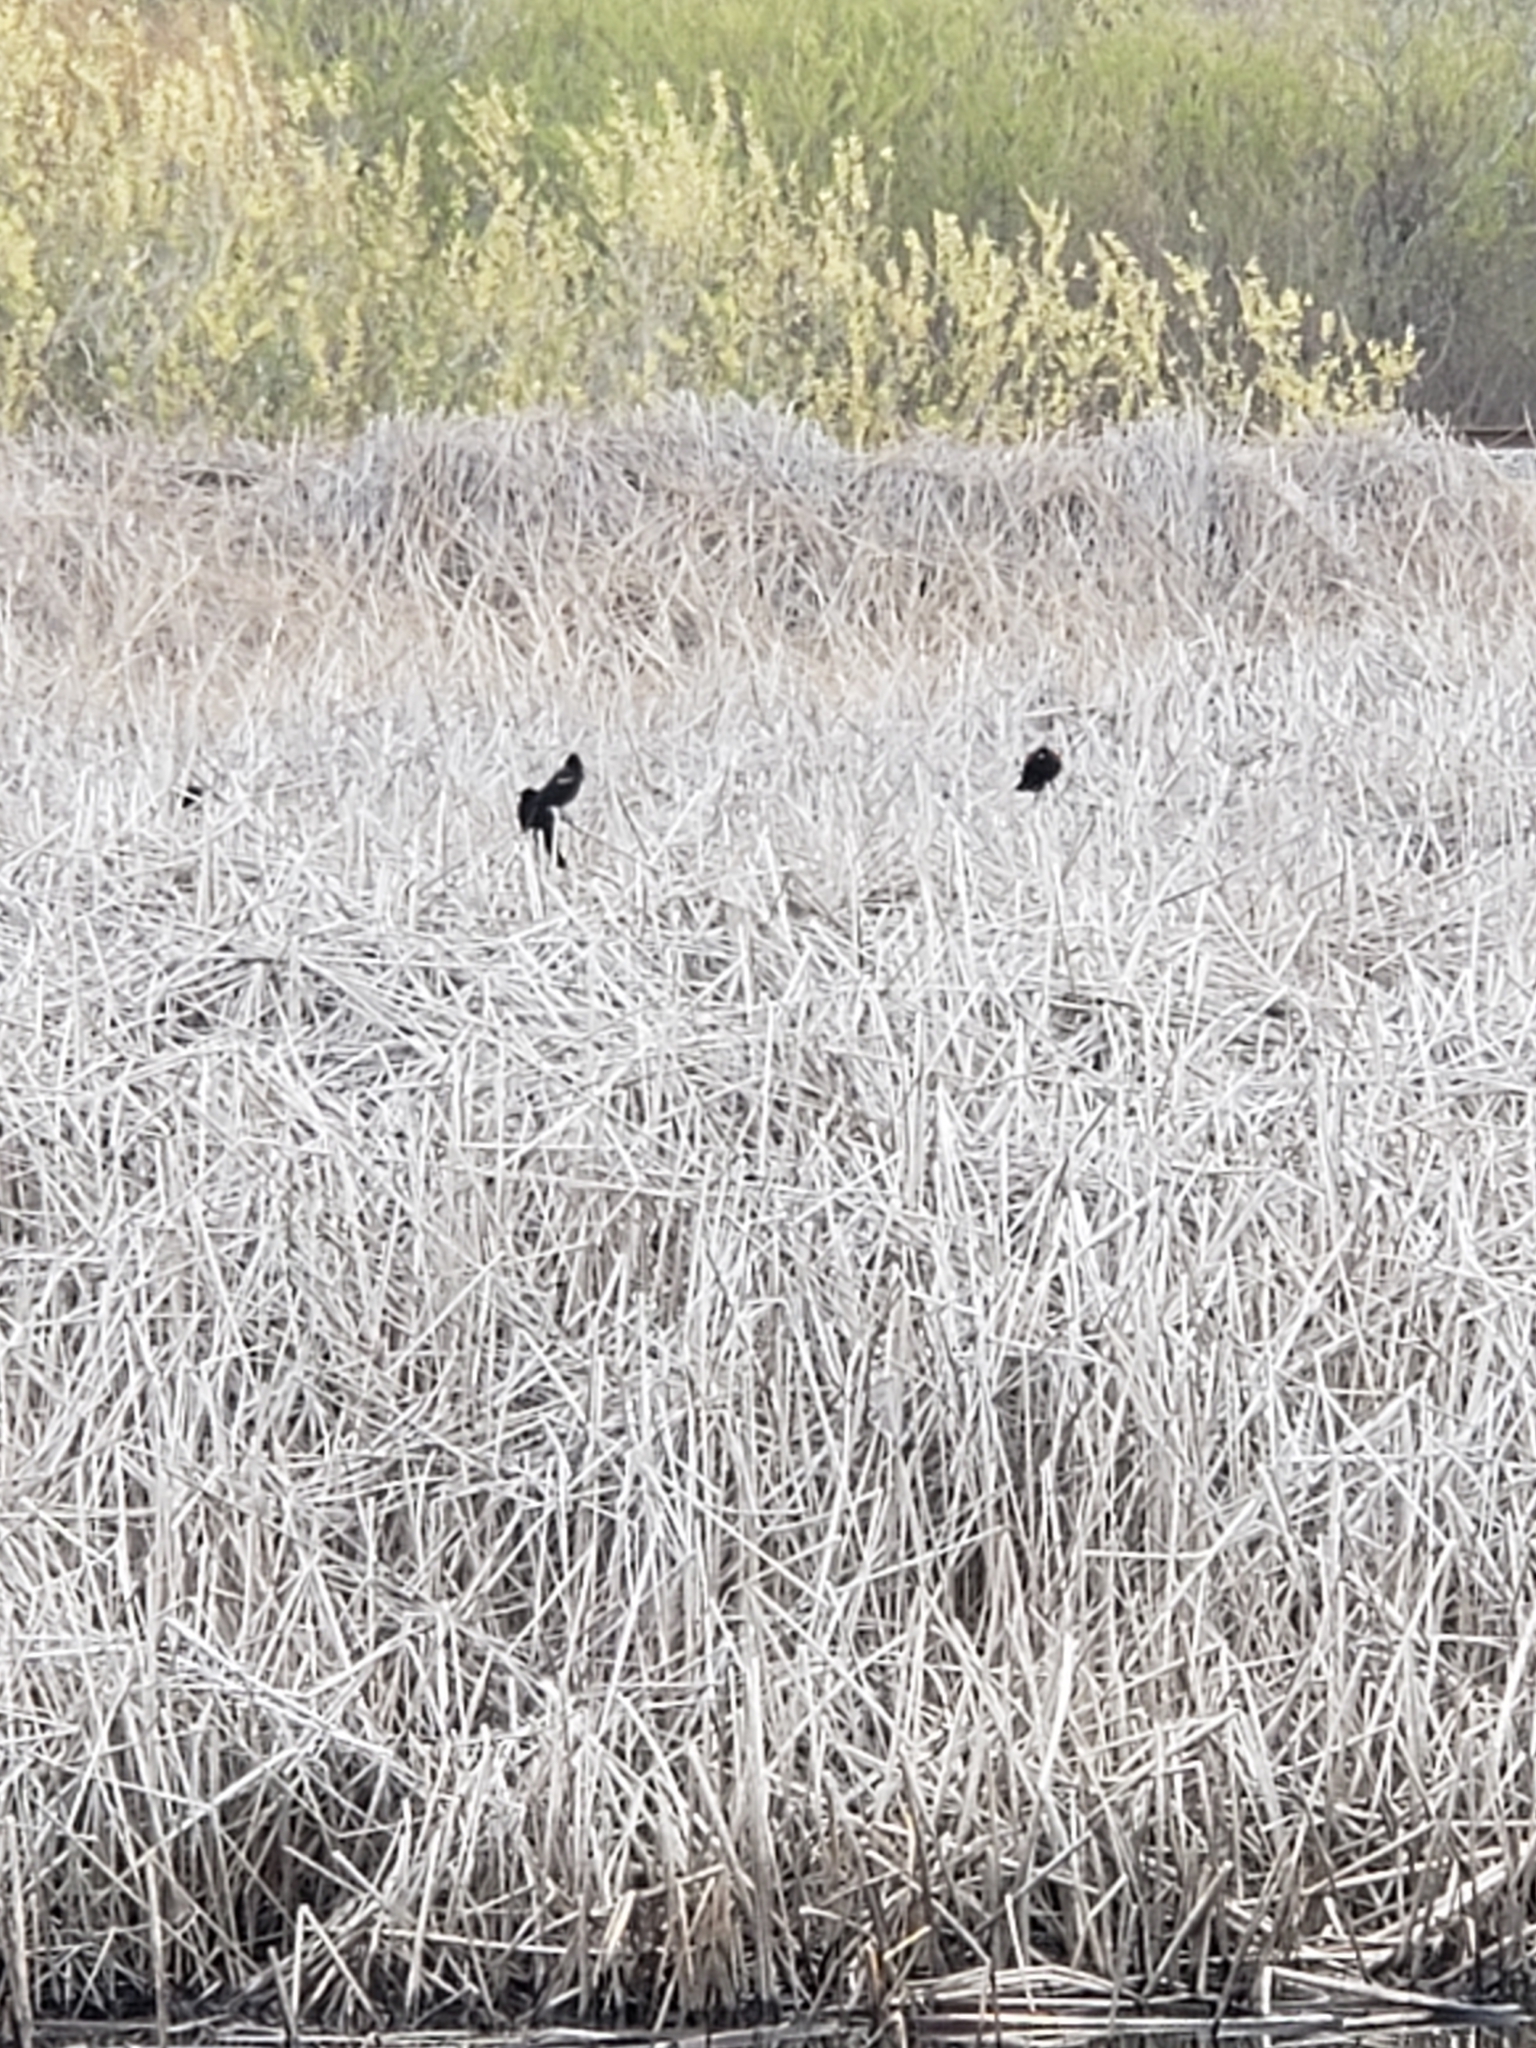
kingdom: Animalia
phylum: Chordata
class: Aves
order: Passeriformes
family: Icteridae
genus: Agelaius
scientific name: Agelaius phoeniceus
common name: Red-winged blackbird
